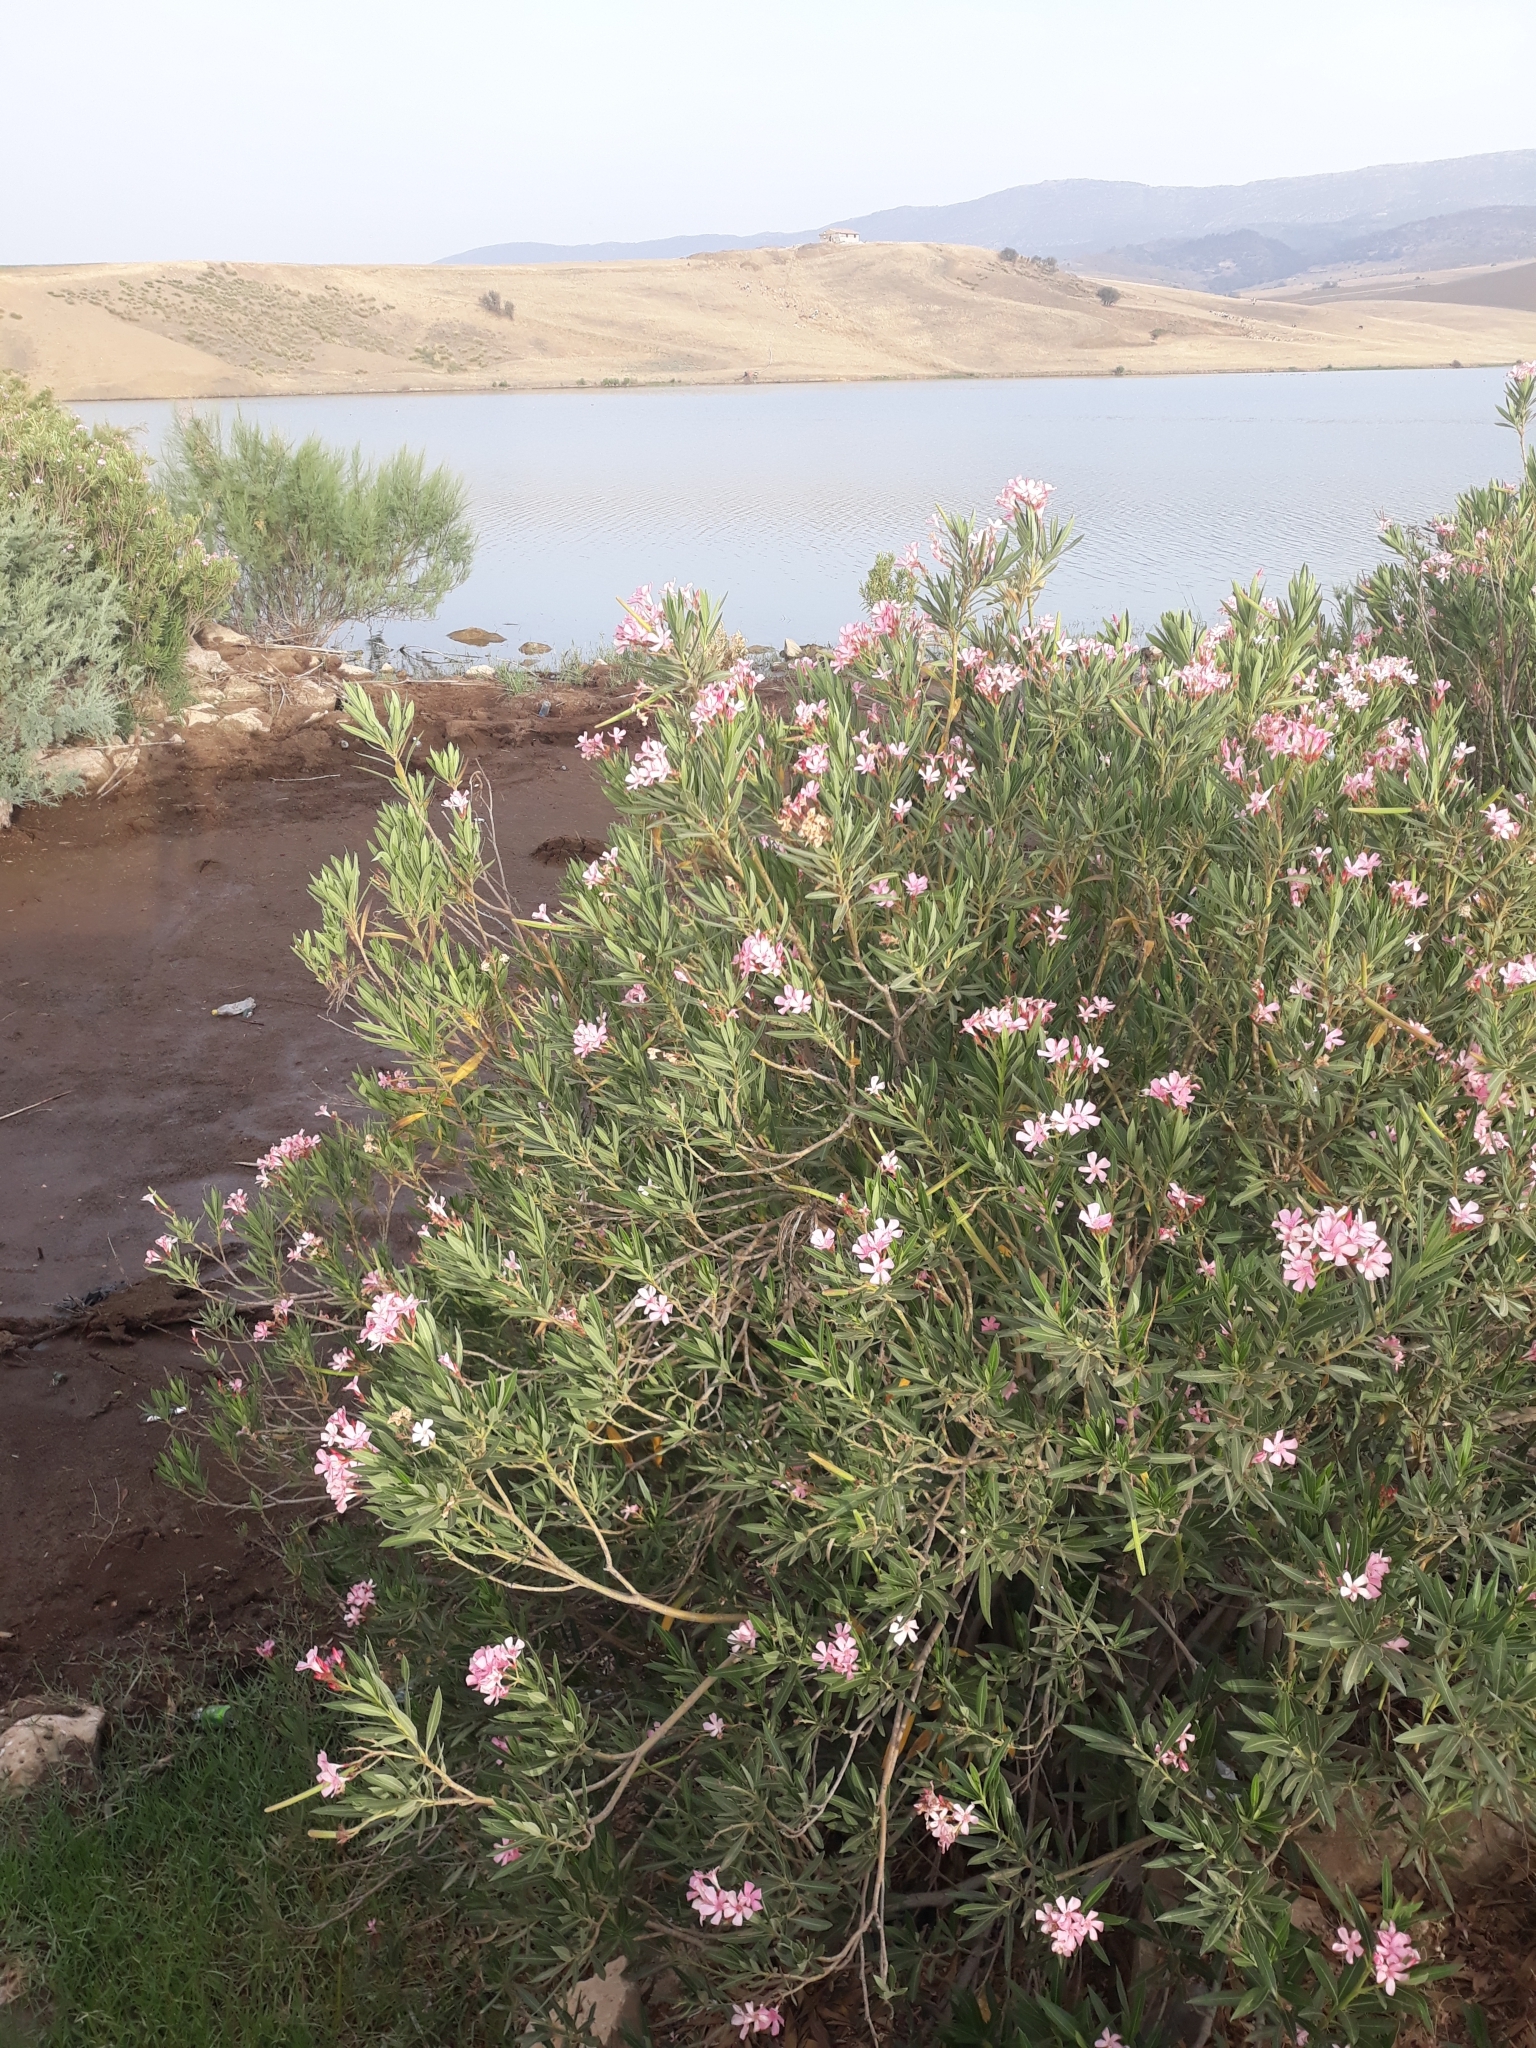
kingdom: Plantae
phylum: Tracheophyta
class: Magnoliopsida
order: Gentianales
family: Apocynaceae
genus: Nerium
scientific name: Nerium oleander
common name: Oleander
